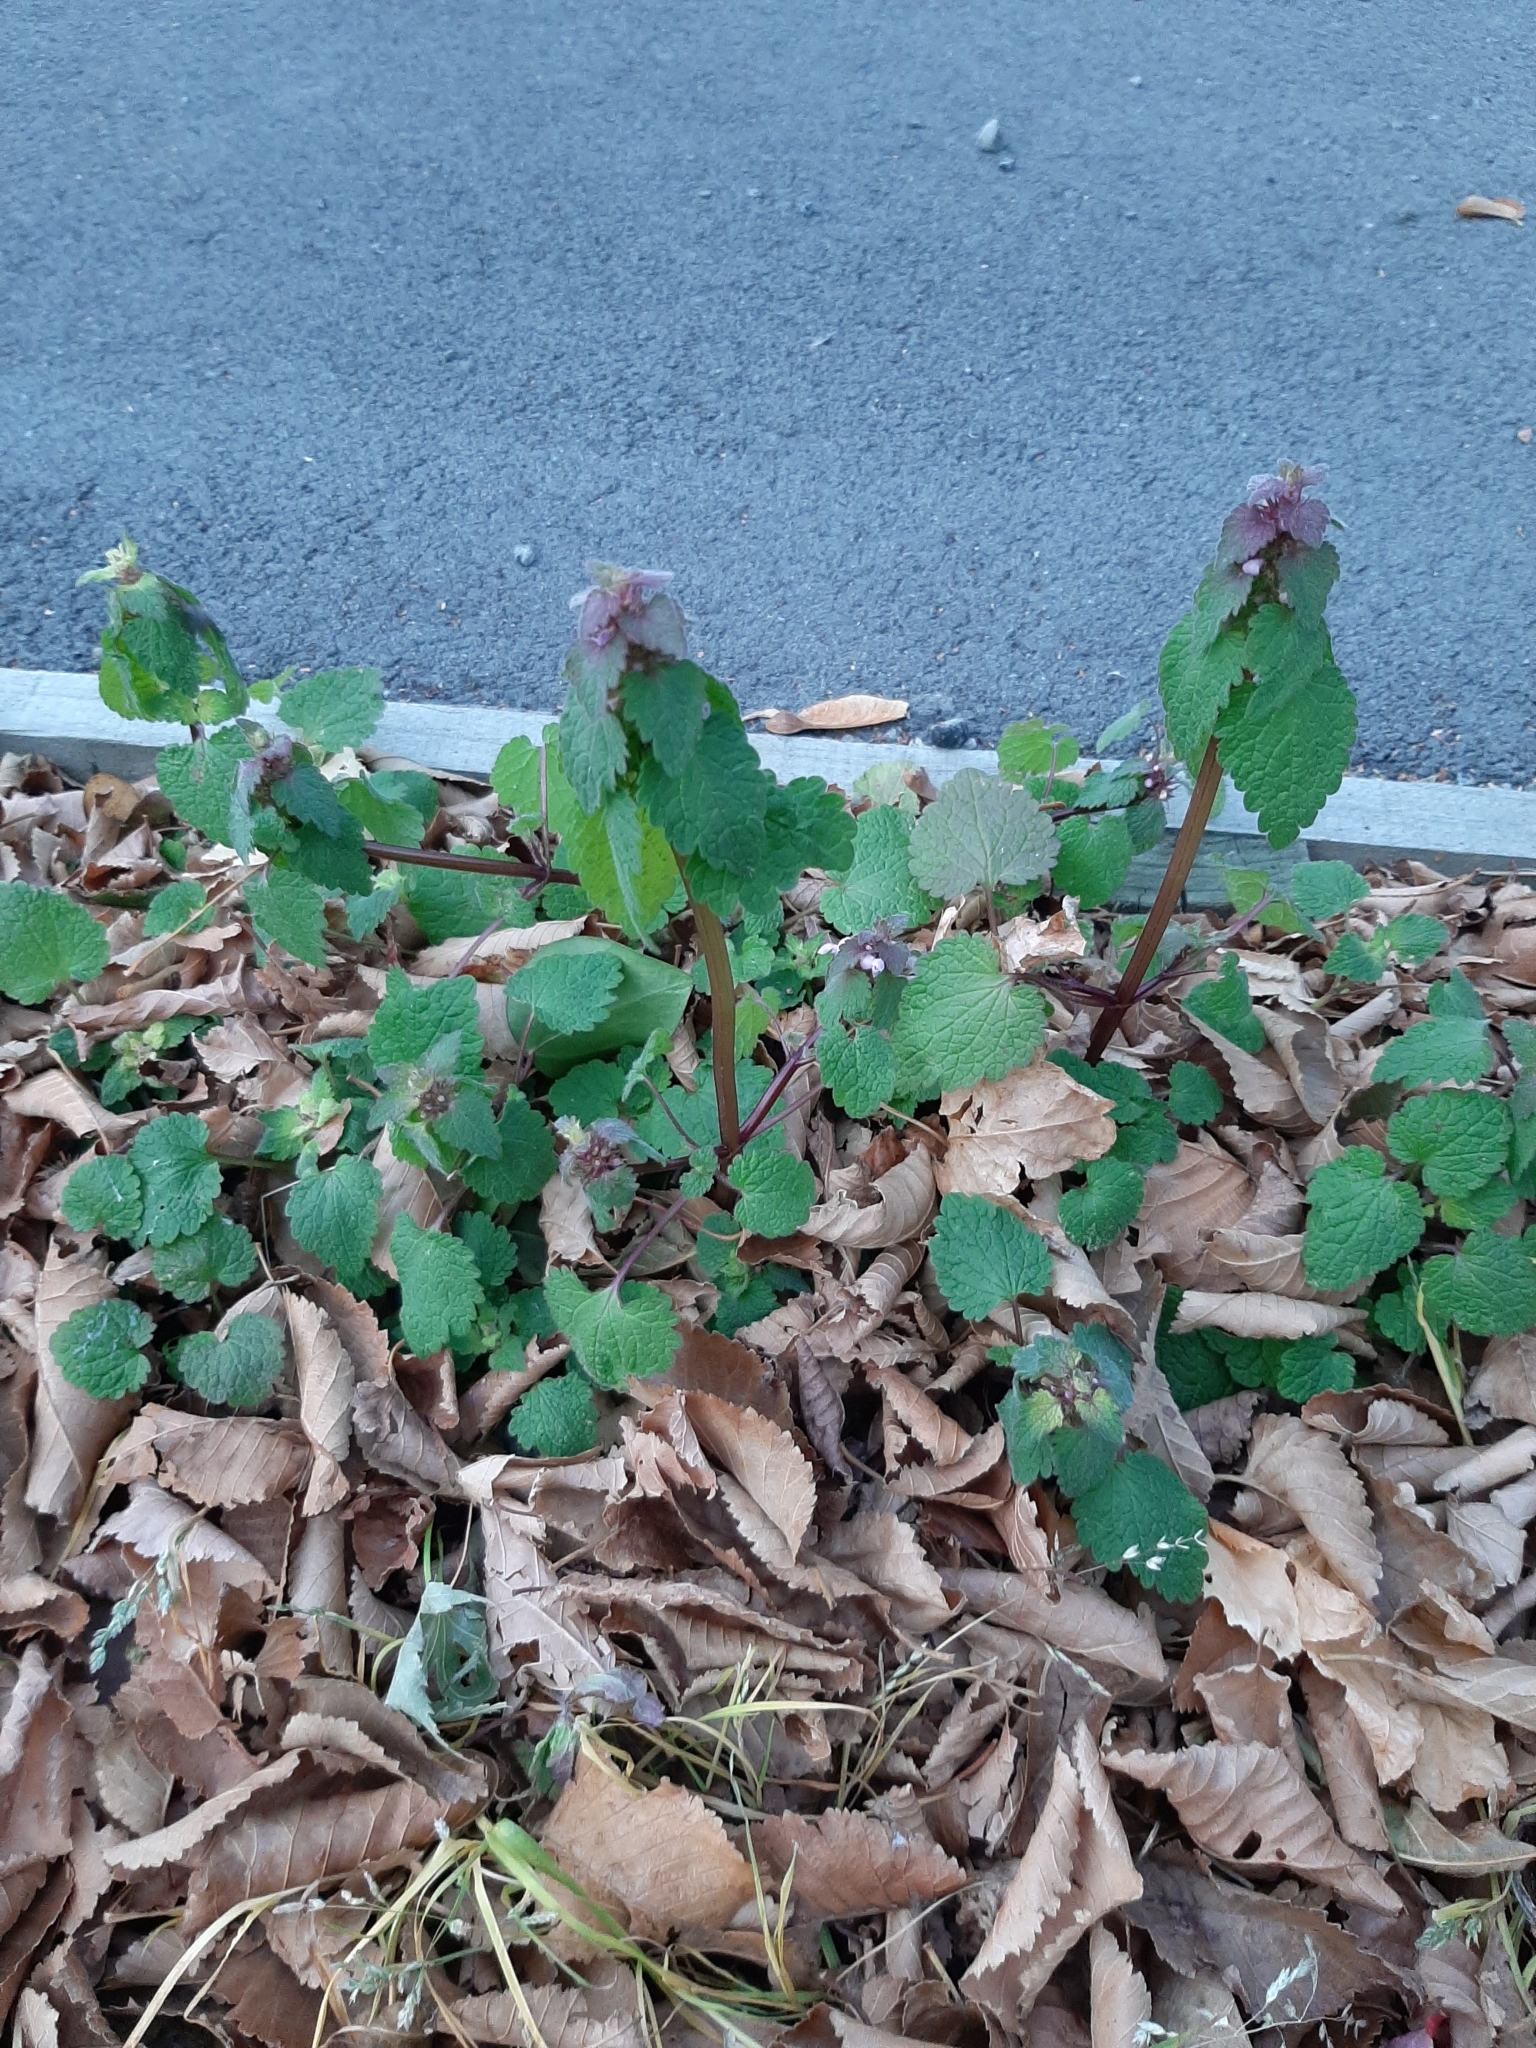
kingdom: Plantae
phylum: Tracheophyta
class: Magnoliopsida
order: Lamiales
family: Lamiaceae
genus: Lamium
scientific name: Lamium purpureum
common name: Red dead-nettle
